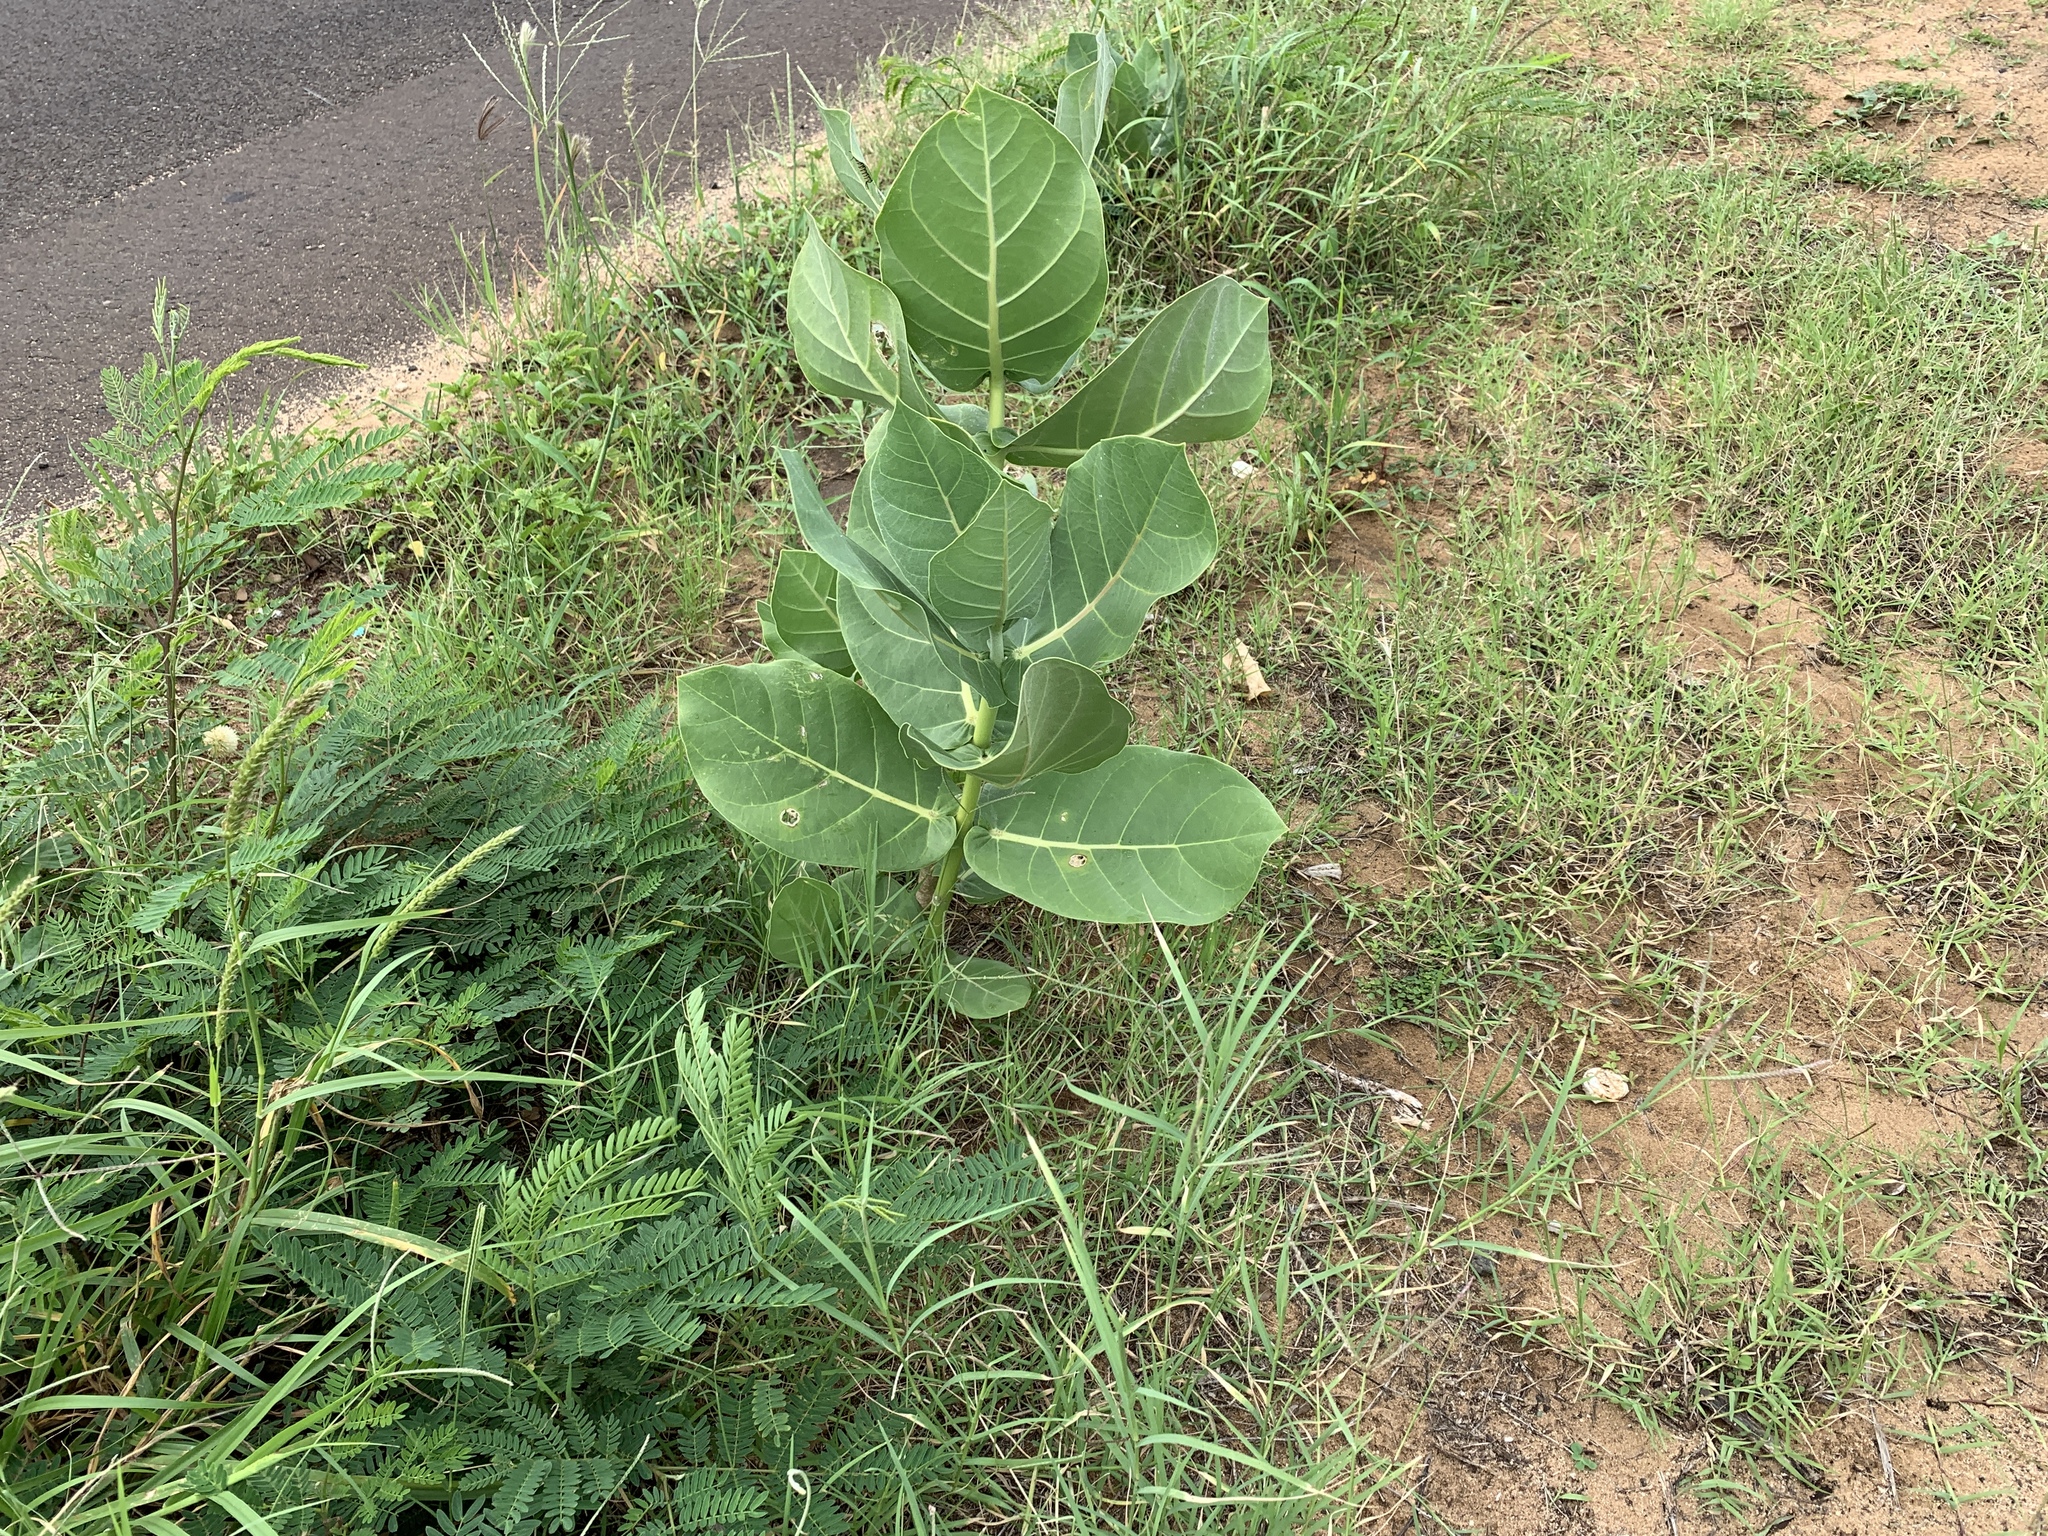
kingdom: Plantae
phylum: Tracheophyta
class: Magnoliopsida
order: Gentianales
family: Apocynaceae
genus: Calotropis
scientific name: Calotropis procera
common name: Roostertree
